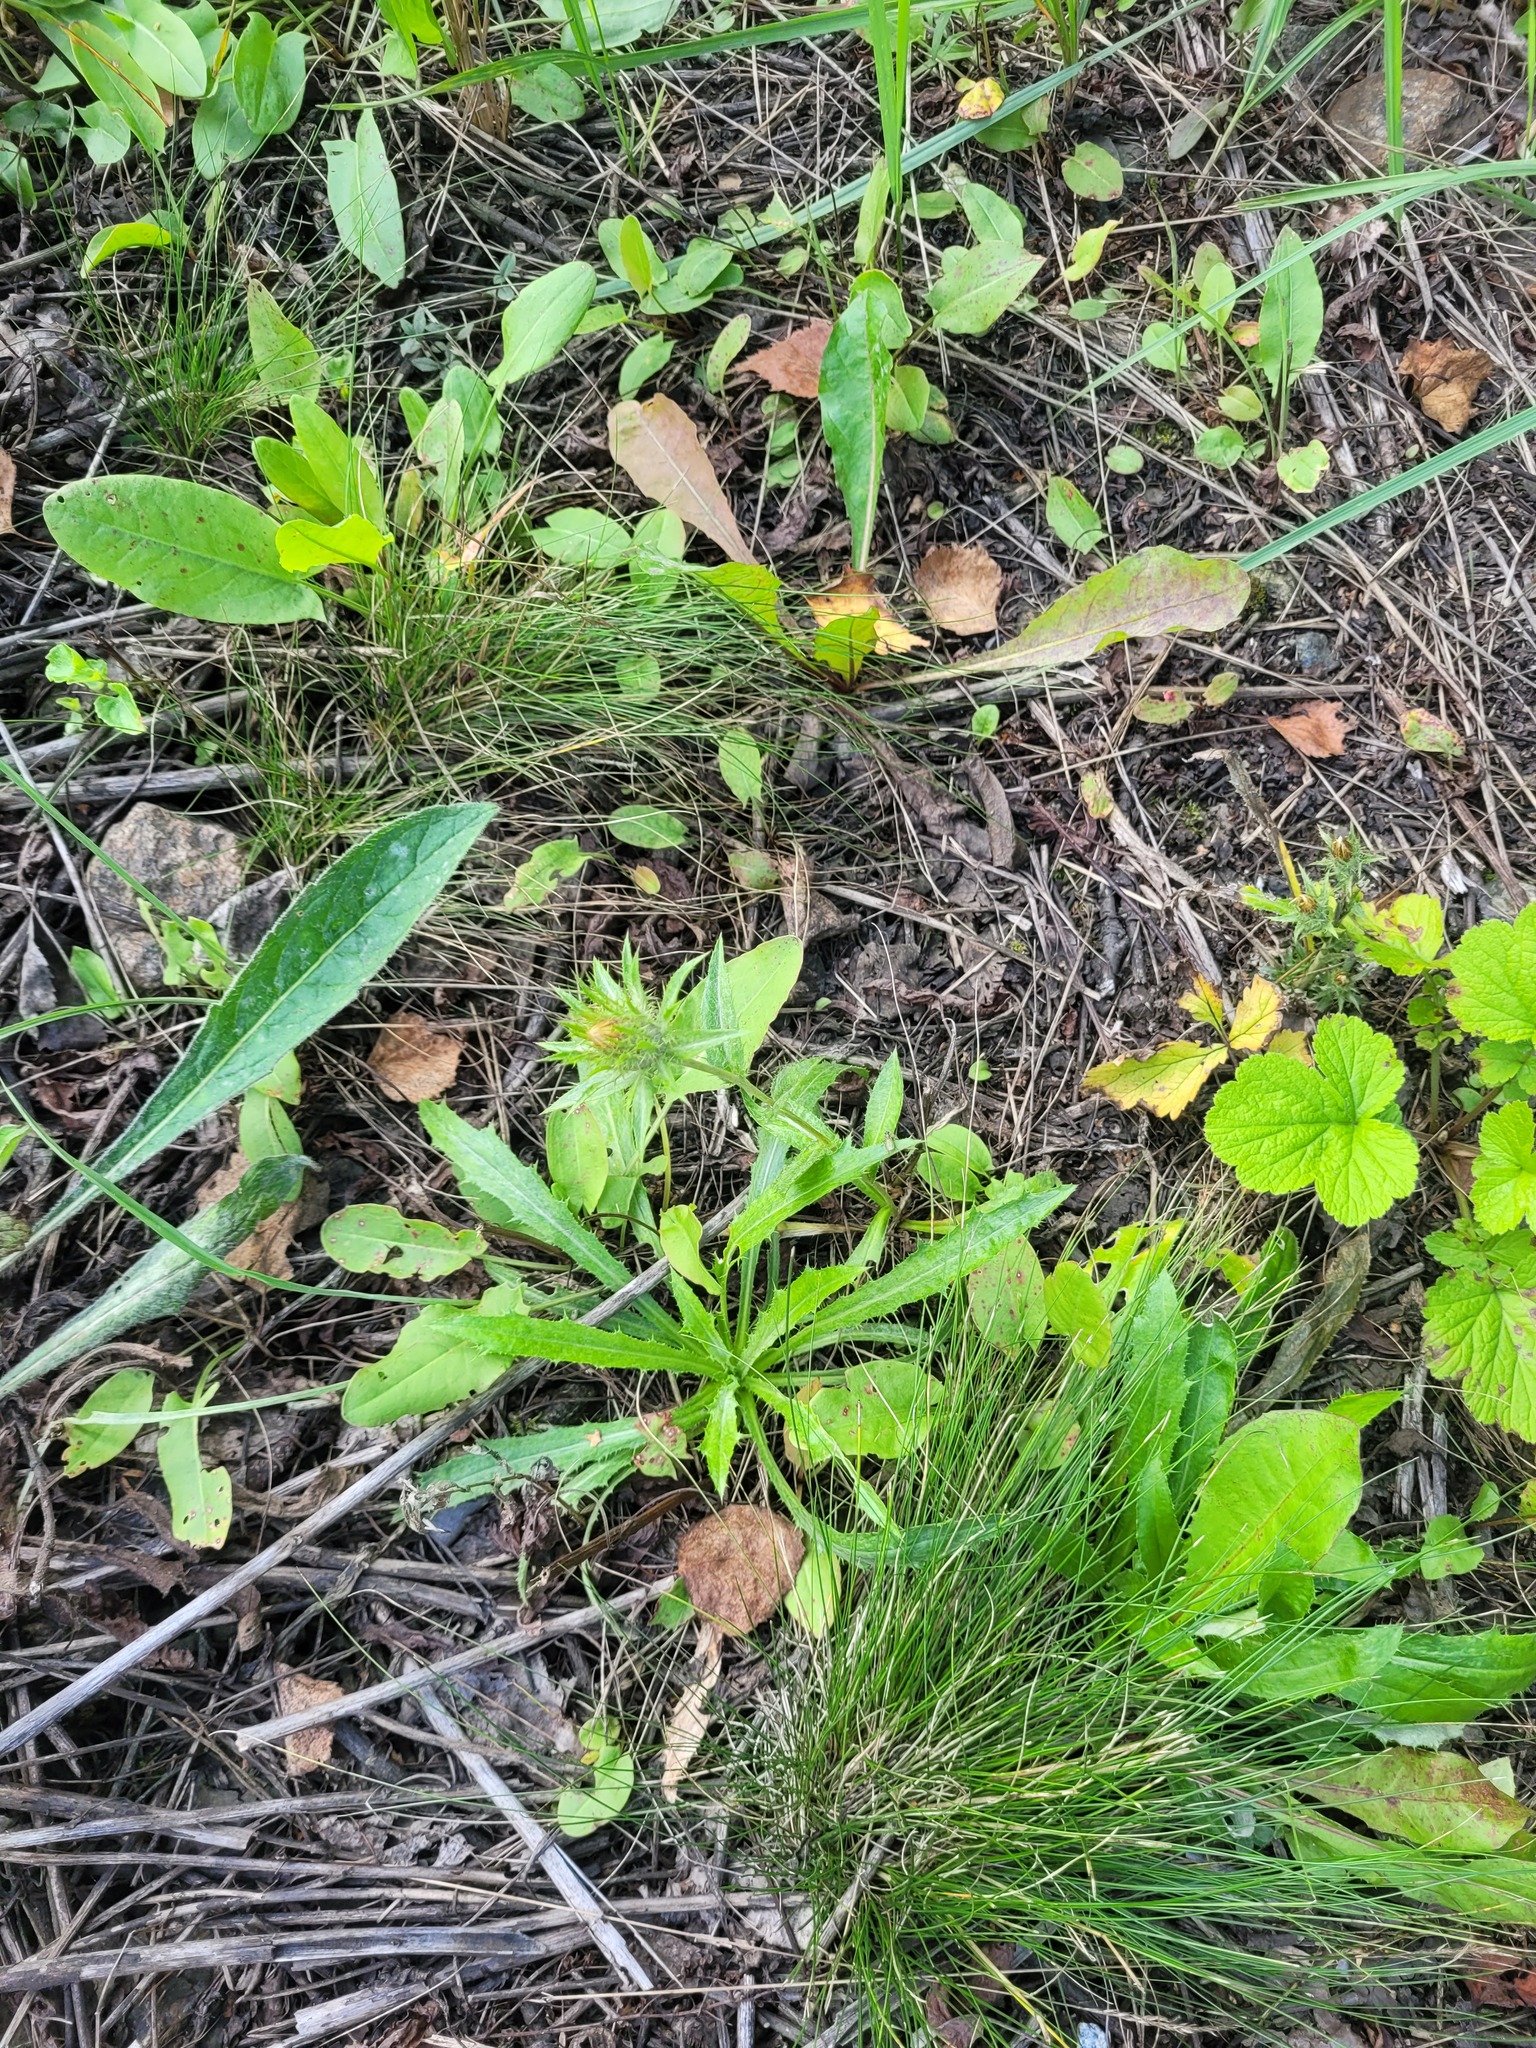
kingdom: Plantae
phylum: Tracheophyta
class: Magnoliopsida
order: Asterales
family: Asteraceae
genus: Carlina
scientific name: Carlina biebersteinii
